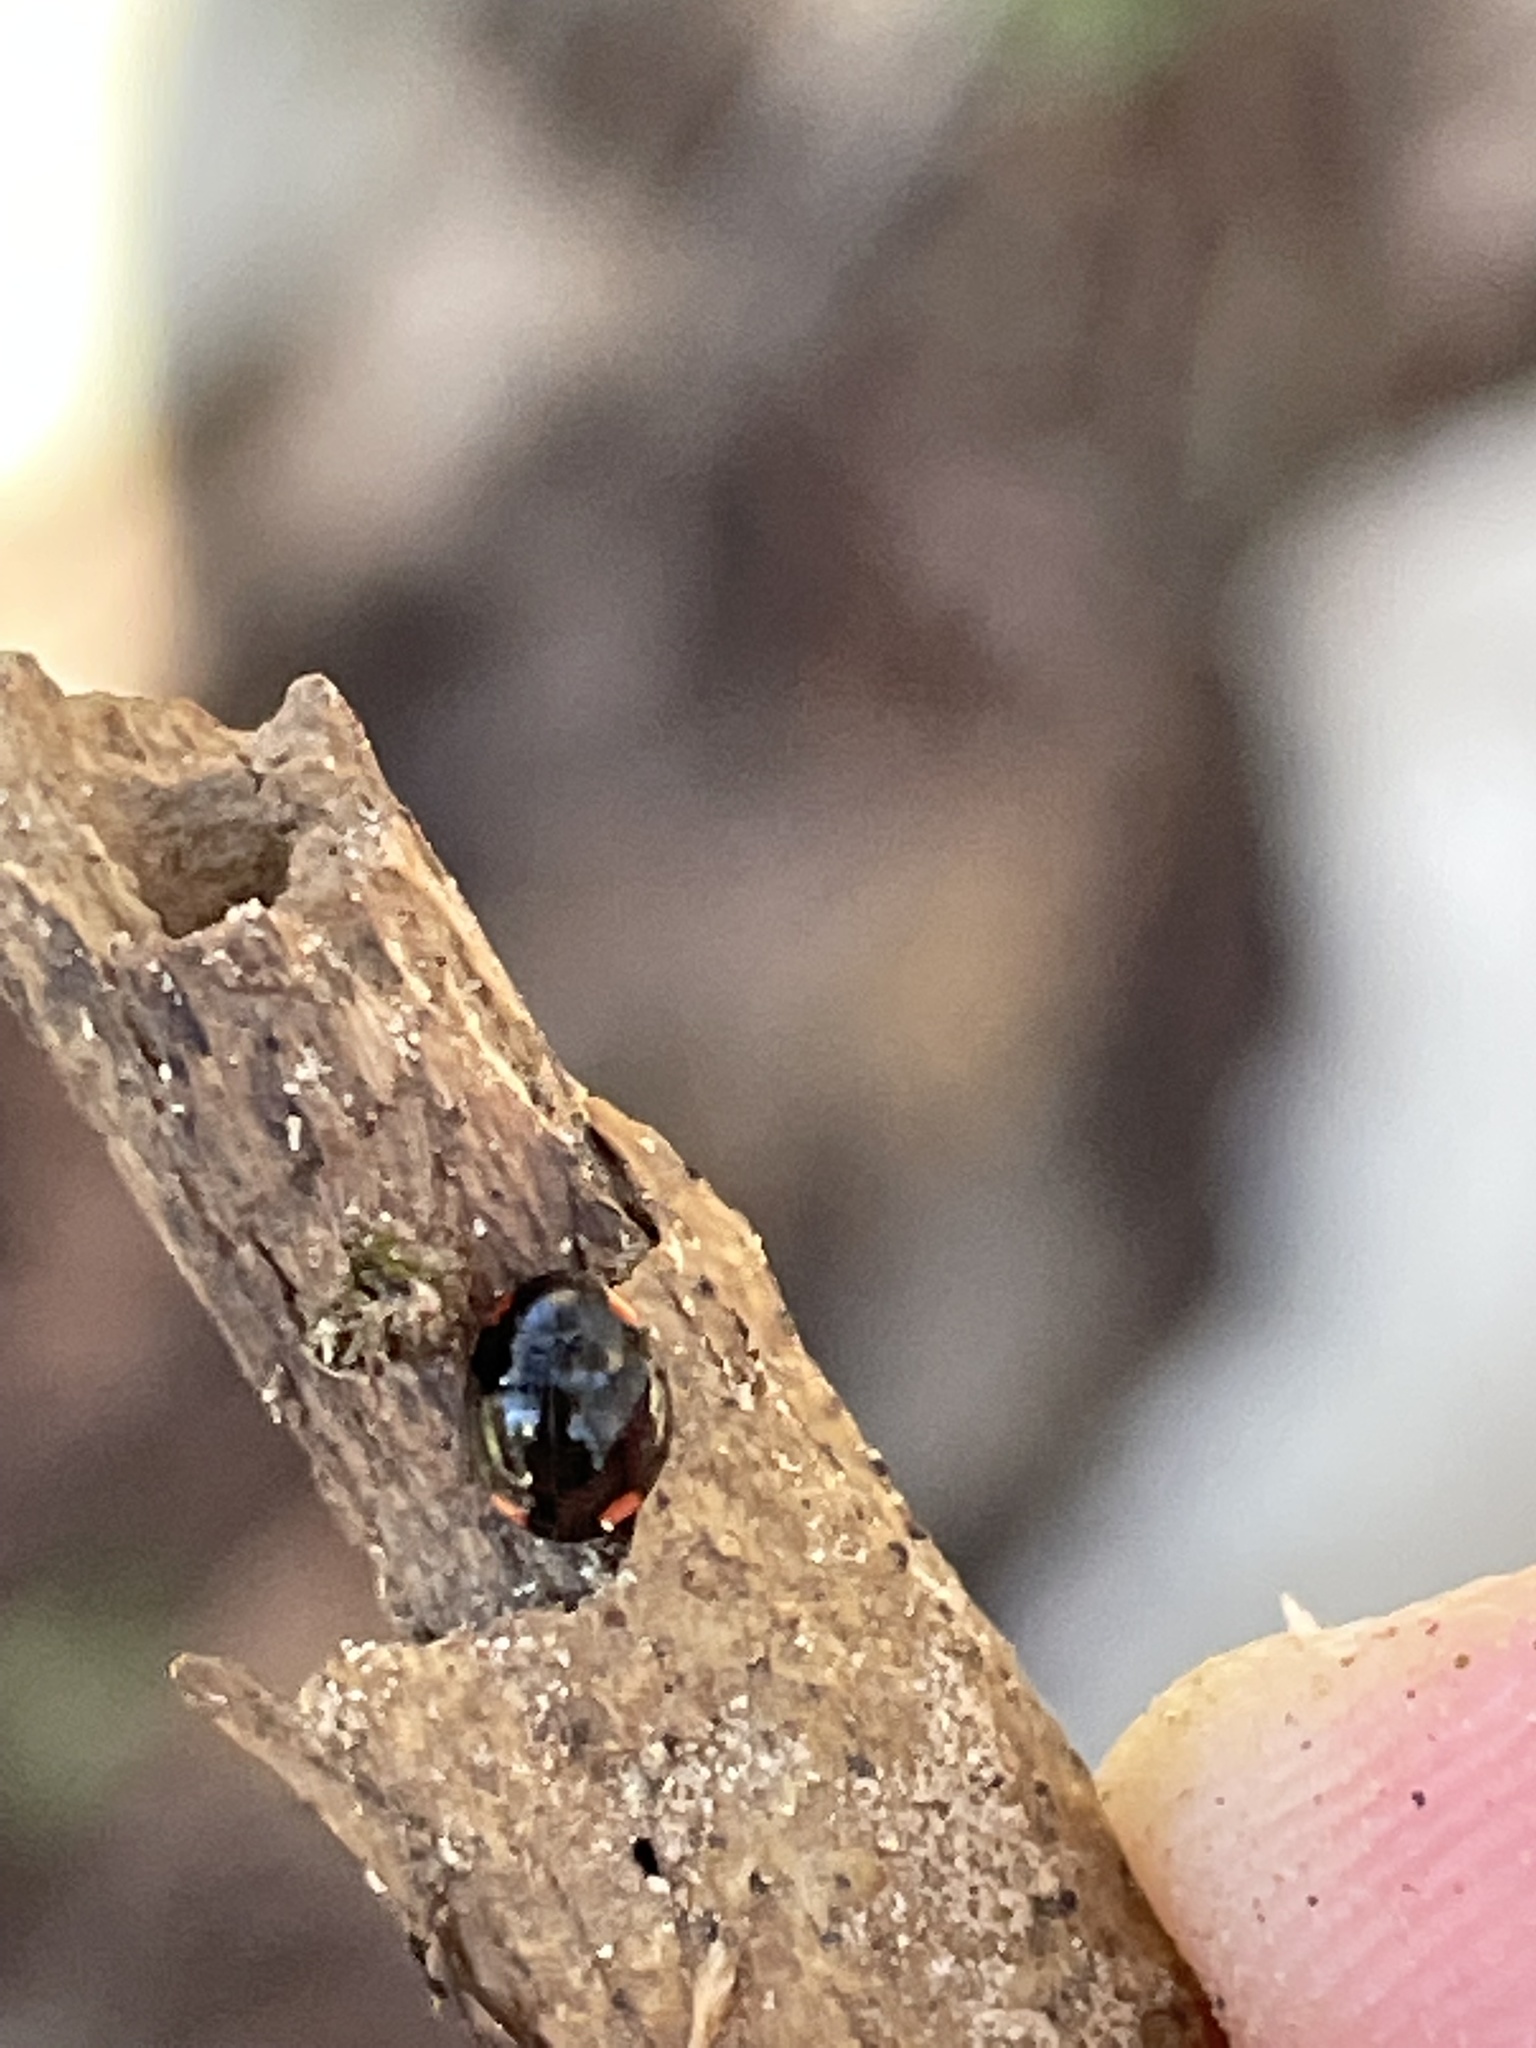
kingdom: Animalia
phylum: Arthropoda
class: Insecta
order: Coleoptera
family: Coccinellidae
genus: Hyperaspis
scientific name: Hyperaspis bigeminata
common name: Bigeminate sigil lady beetle
